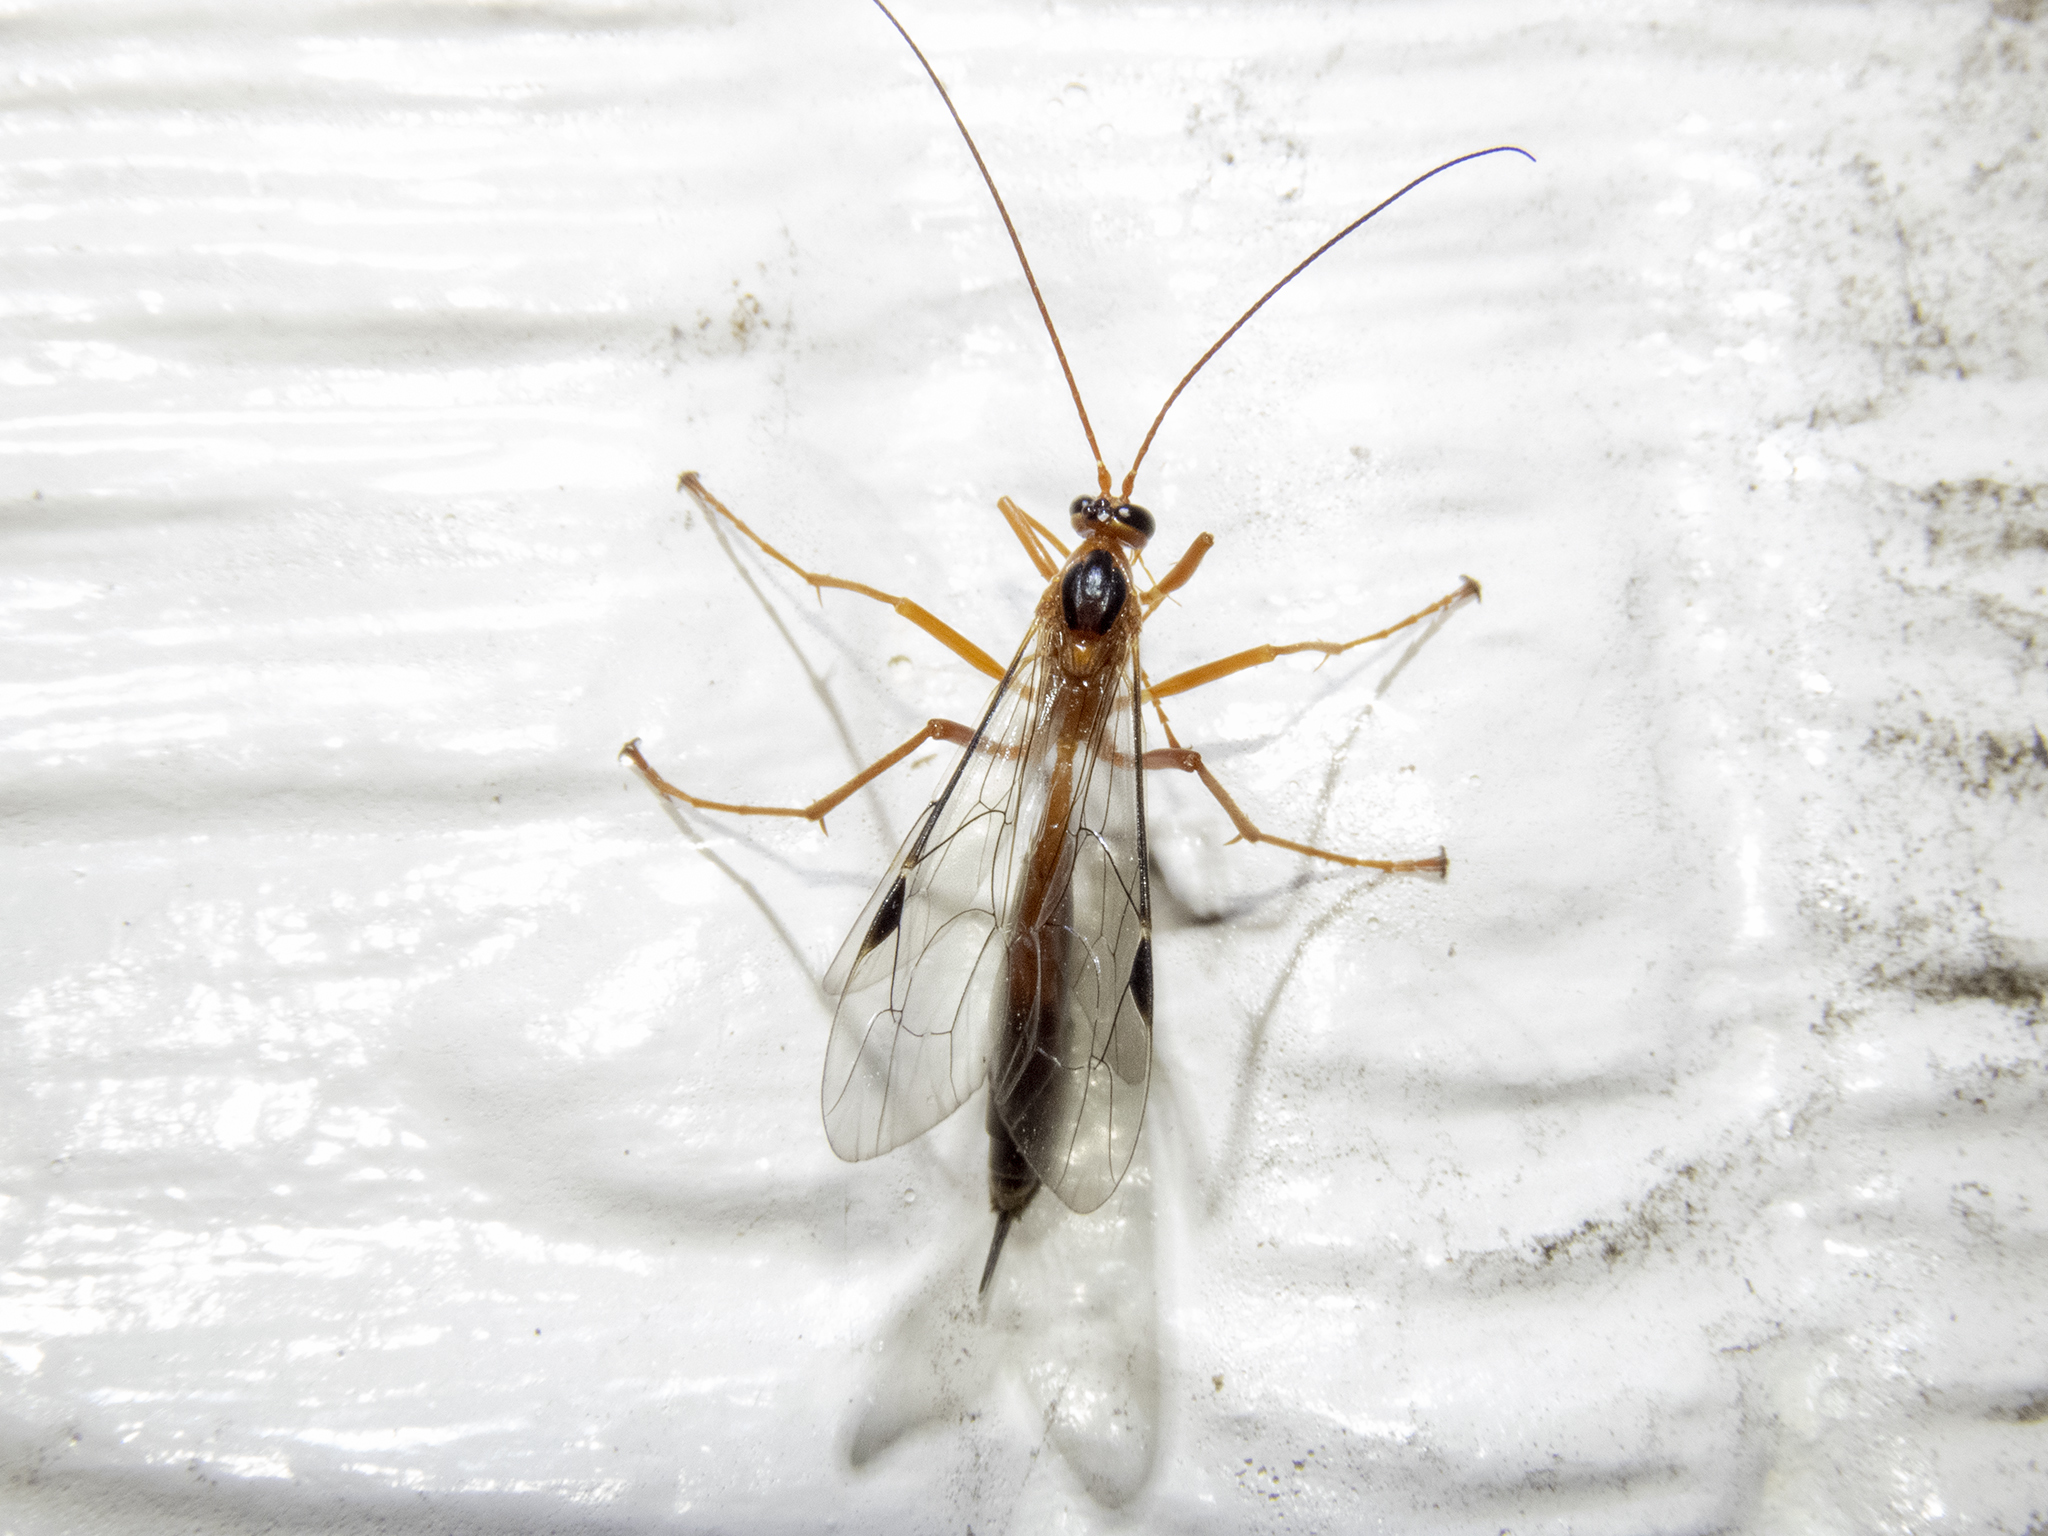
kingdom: Animalia
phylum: Arthropoda
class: Insecta
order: Hymenoptera
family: Ichneumonidae
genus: Netelia
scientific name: Netelia ephippiata
